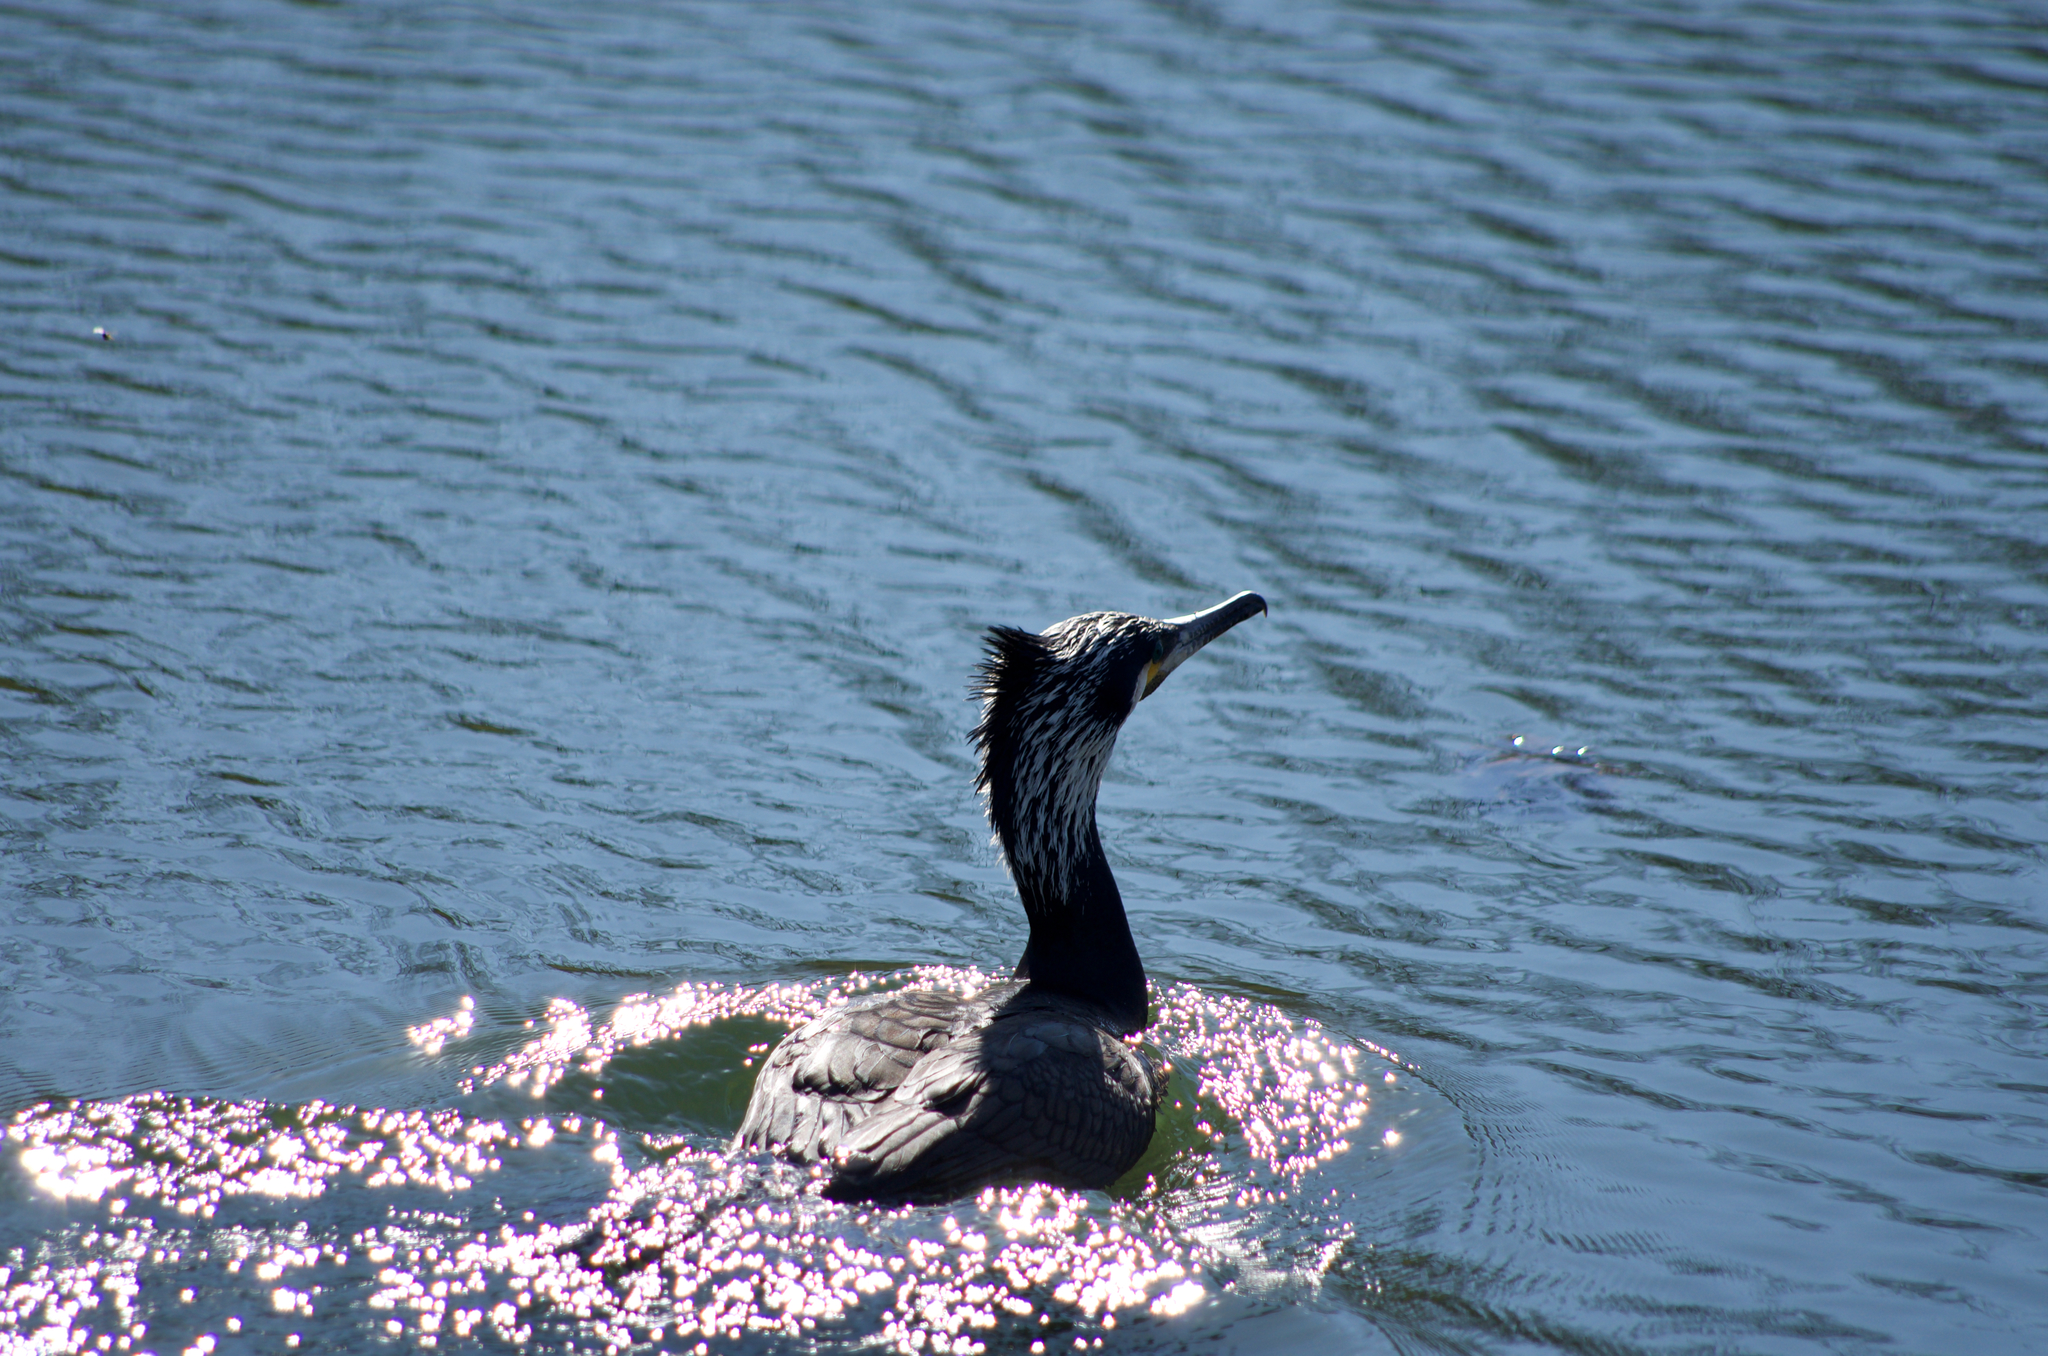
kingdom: Animalia
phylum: Chordata
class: Aves
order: Suliformes
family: Phalacrocoracidae
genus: Phalacrocorax
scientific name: Phalacrocorax carbo
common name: Great cormorant
